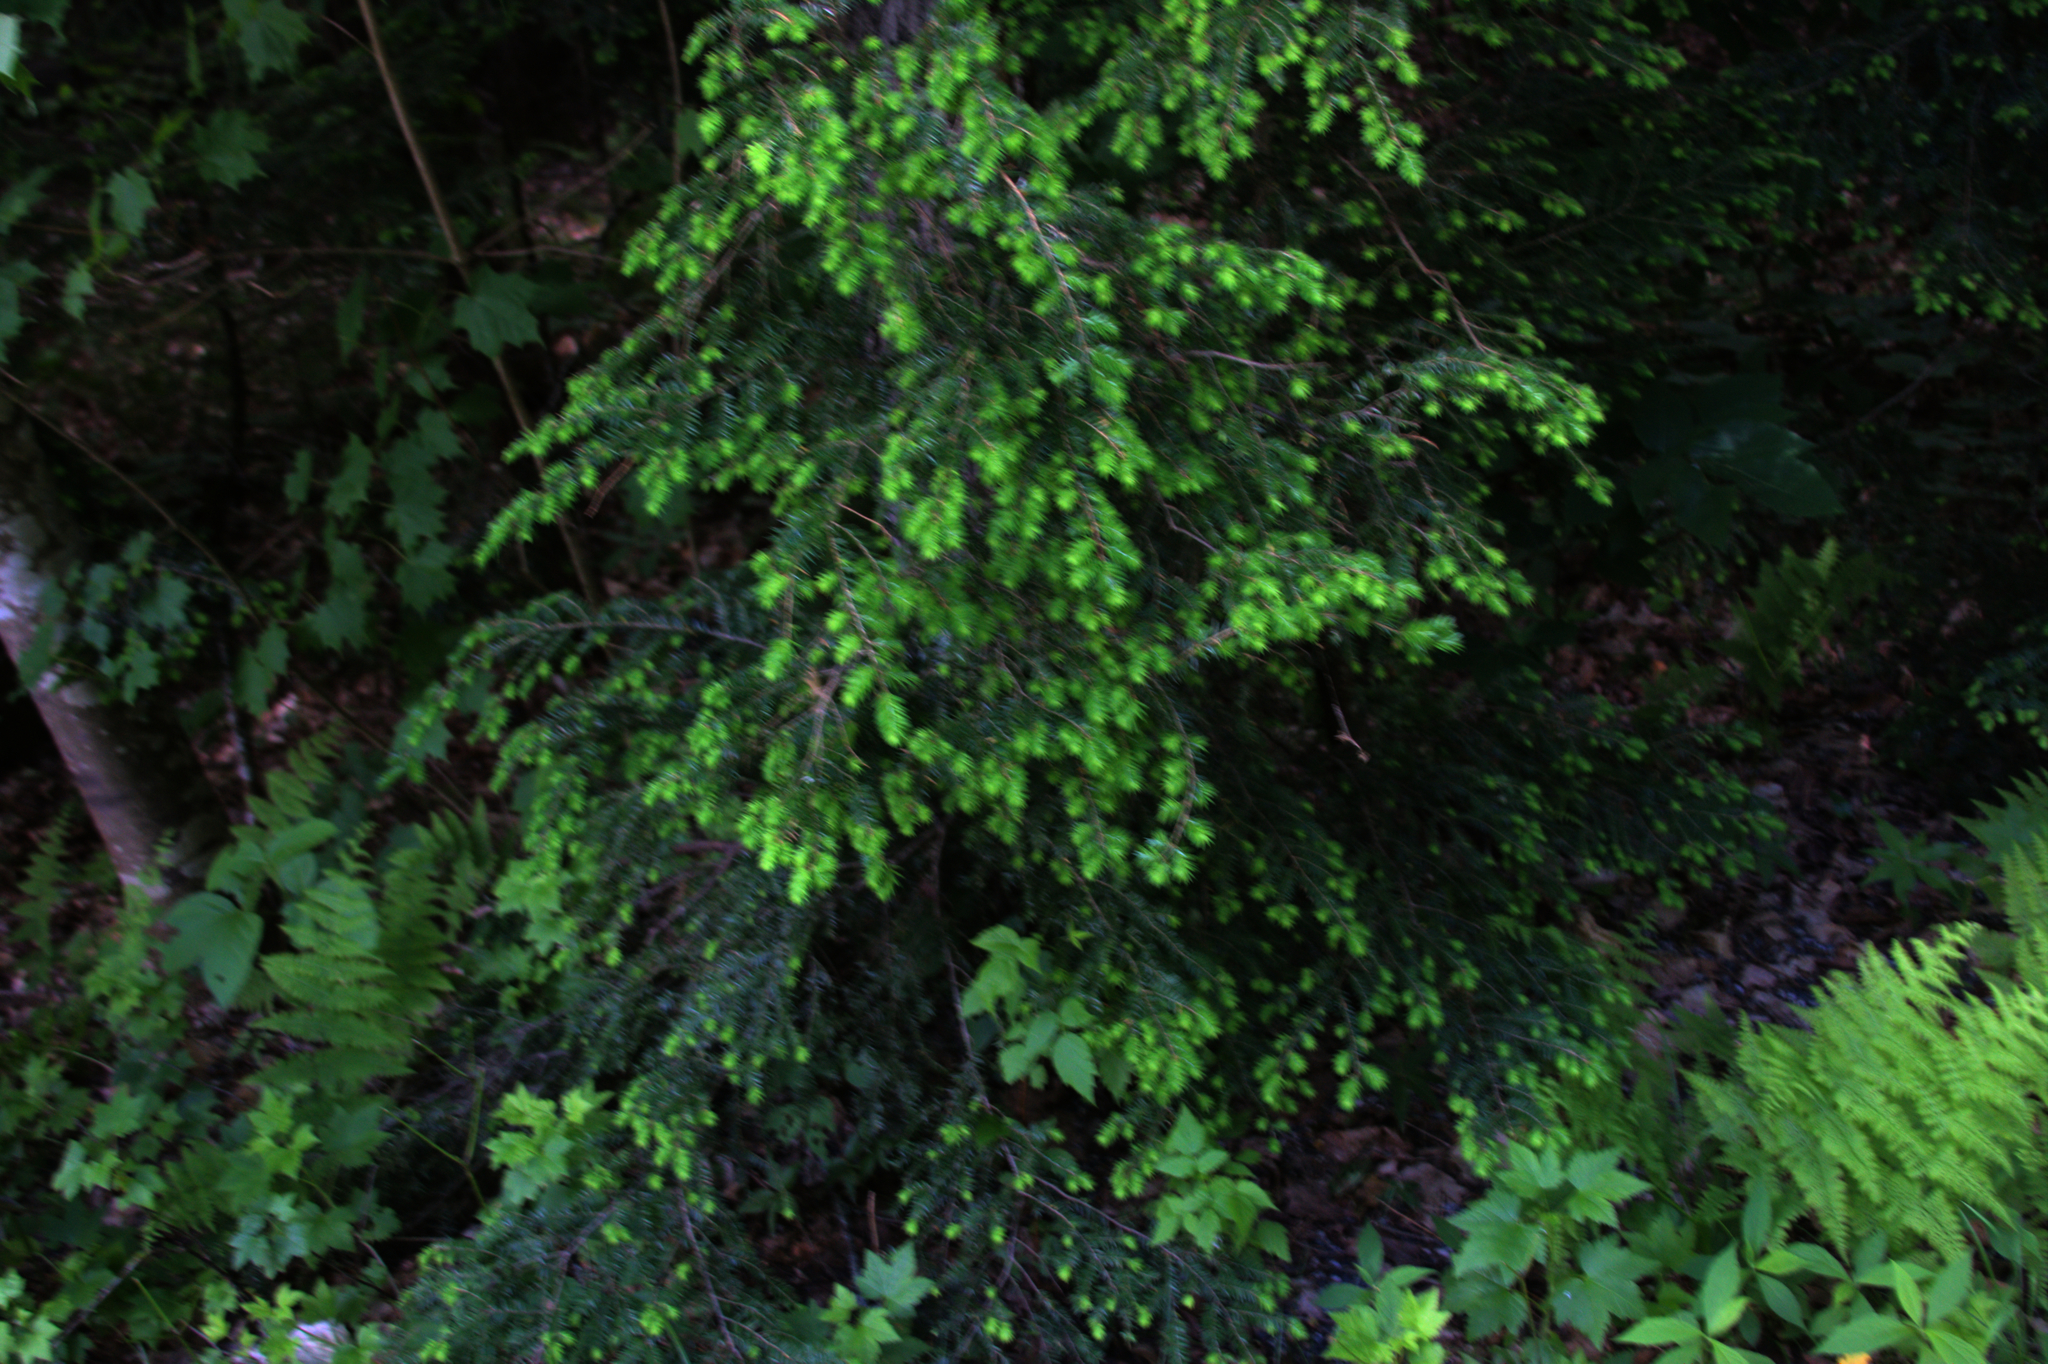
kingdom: Plantae
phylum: Tracheophyta
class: Pinopsida
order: Pinales
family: Pinaceae
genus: Tsuga
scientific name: Tsuga canadensis
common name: Eastern hemlock
